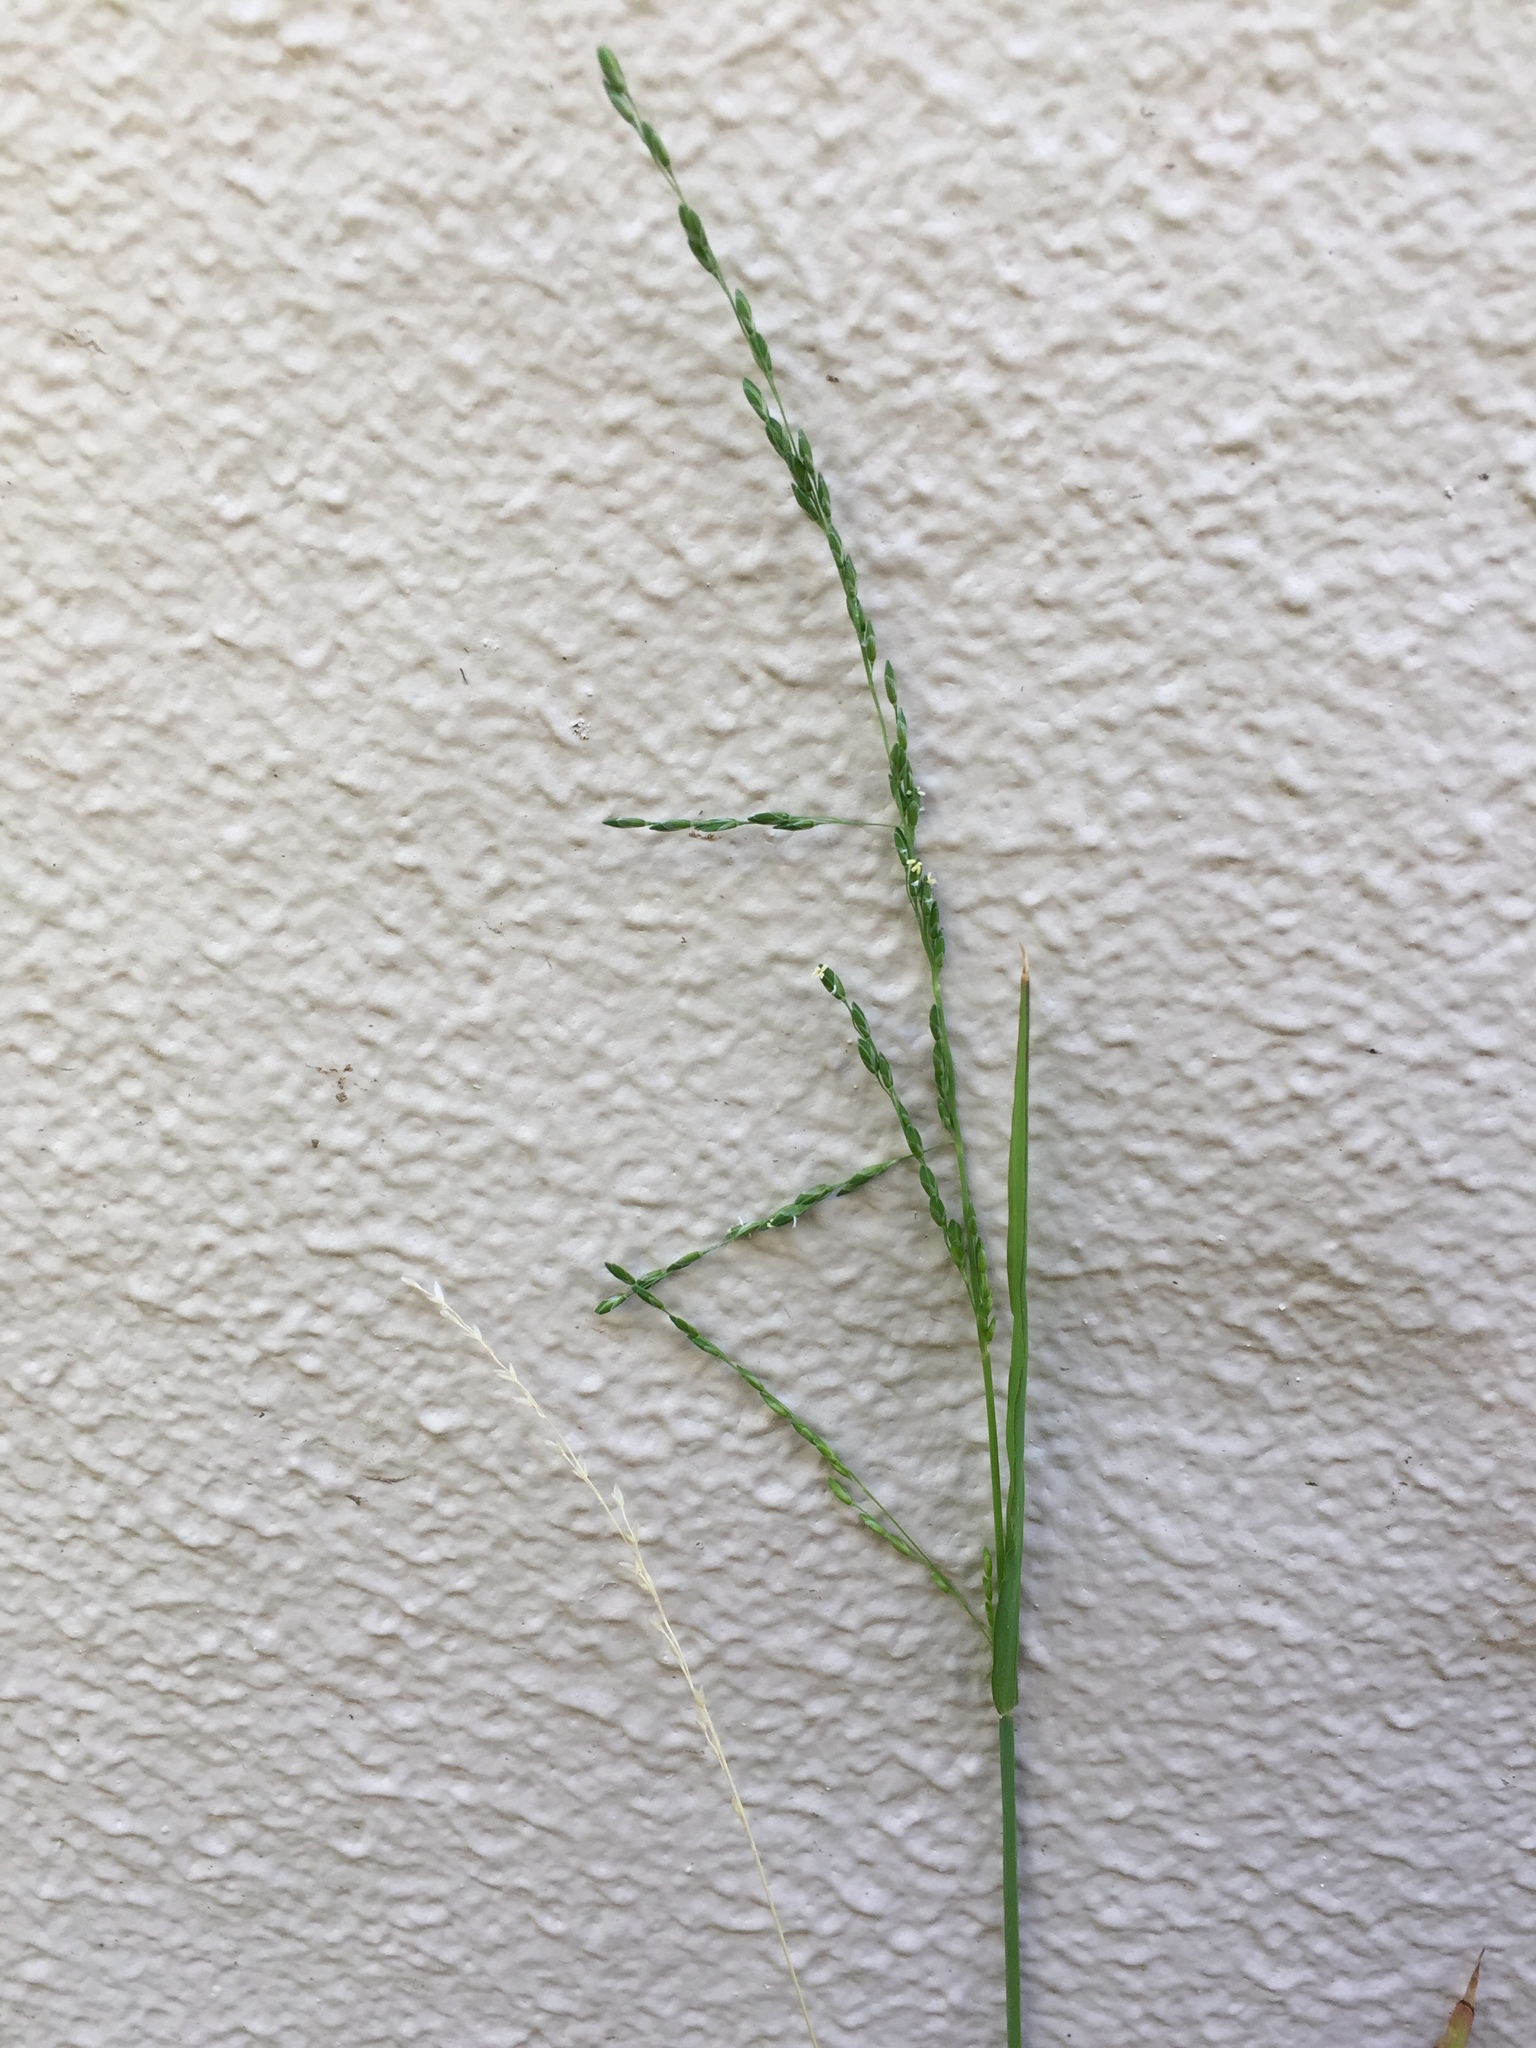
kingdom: Plantae
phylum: Tracheophyta
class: Liliopsida
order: Poales
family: Poaceae
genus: Ehrharta
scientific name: Ehrharta erecta
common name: Panic veldtgrass
